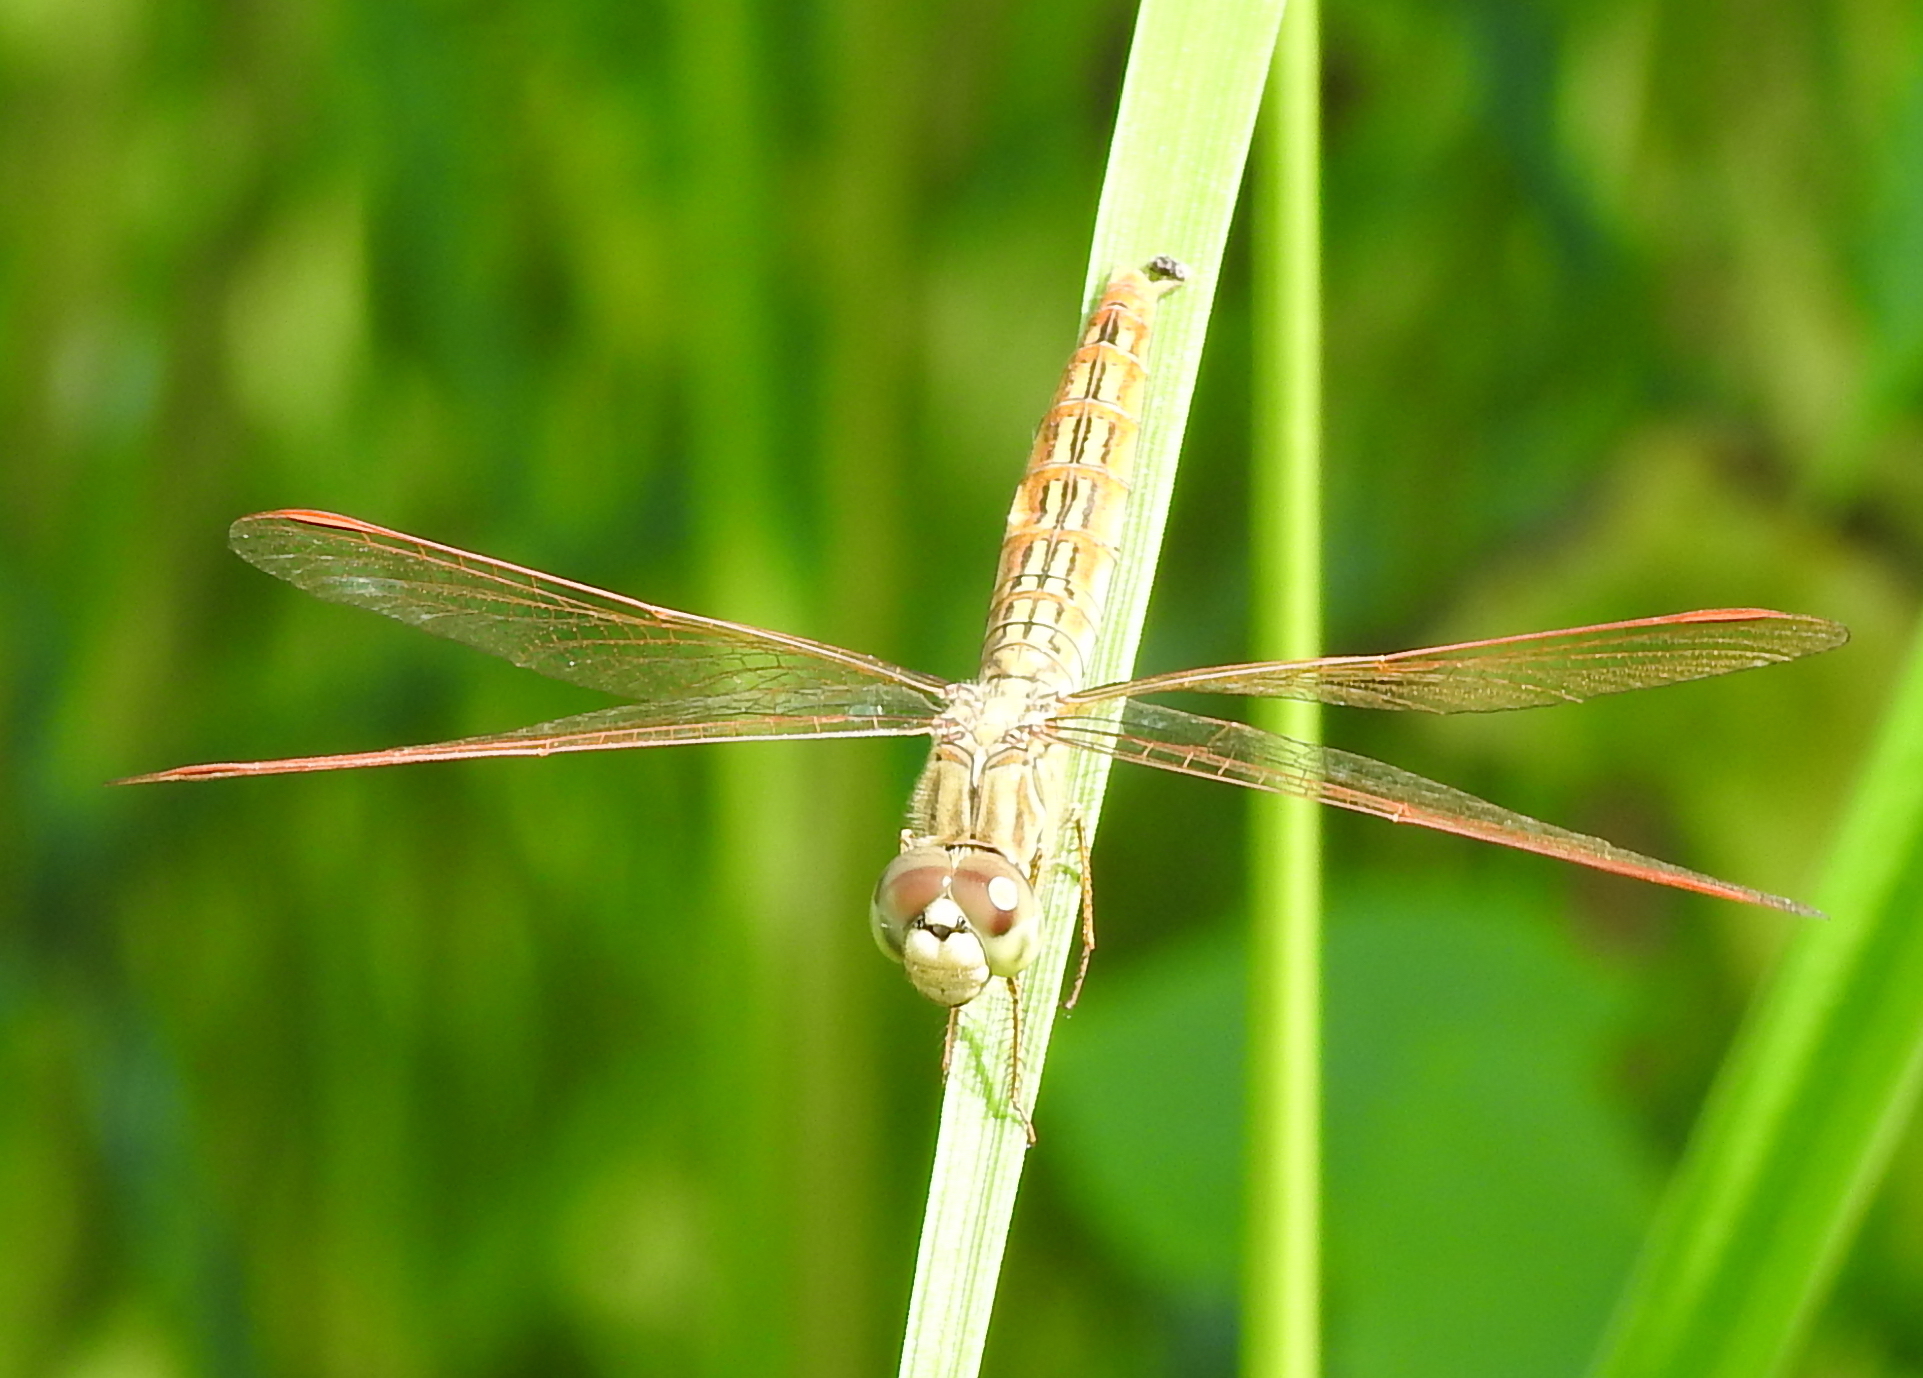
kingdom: Animalia
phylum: Arthropoda
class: Insecta
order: Odonata
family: Libellulidae
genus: Brachythemis
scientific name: Brachythemis contaminata
